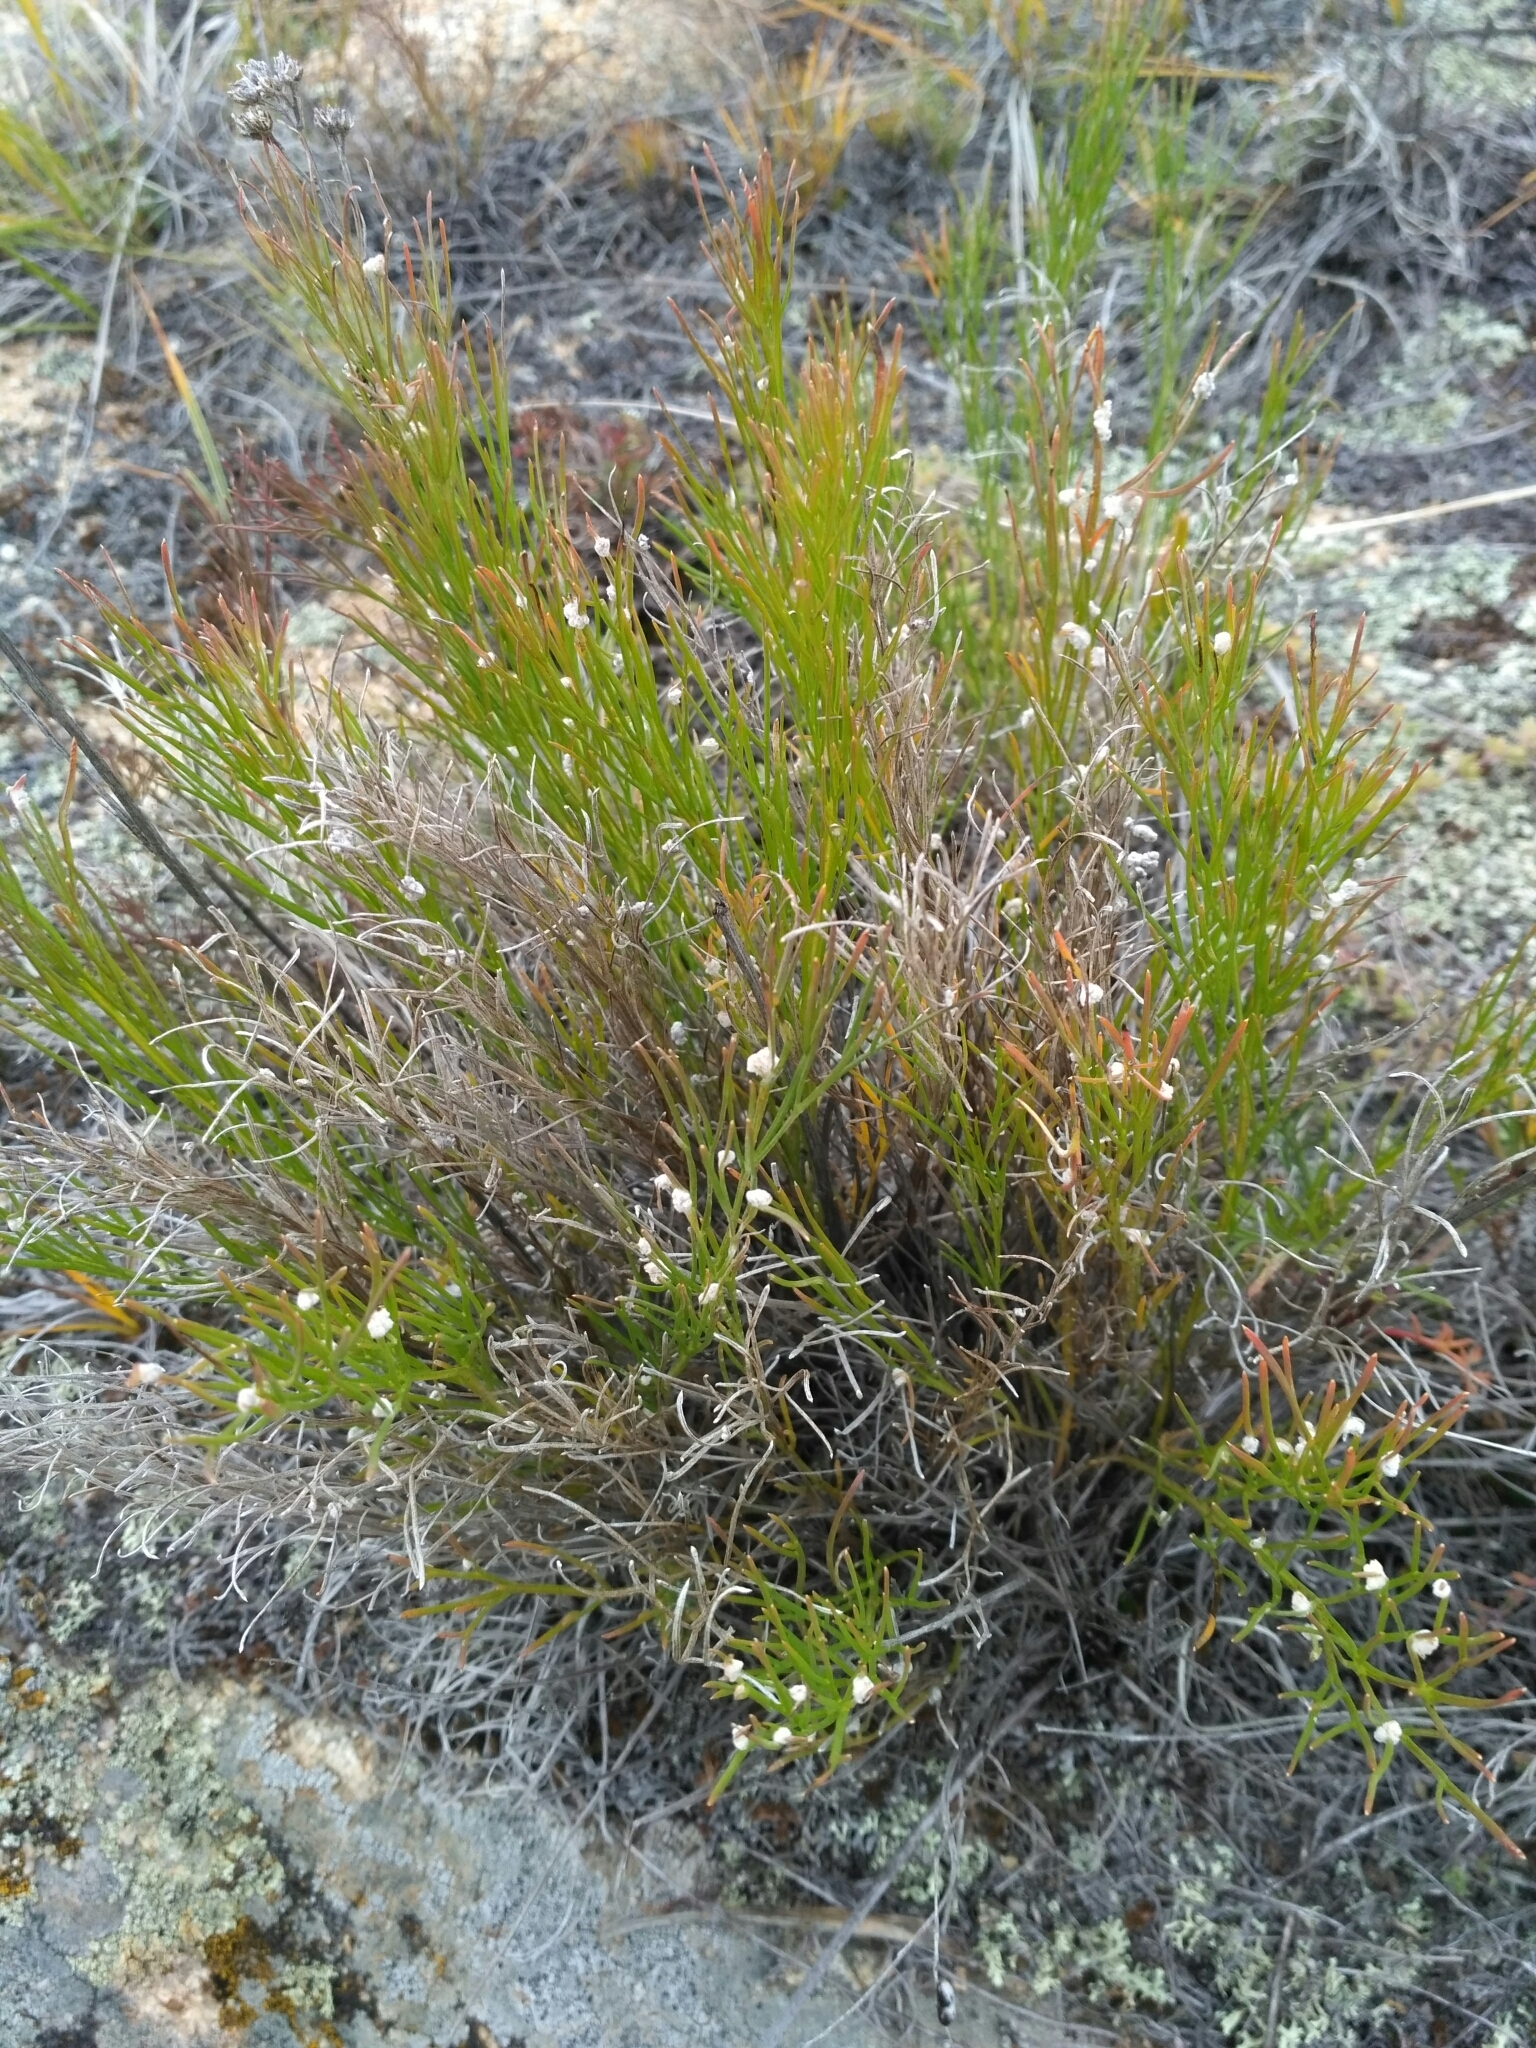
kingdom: Plantae
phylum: Tracheophyta
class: Magnoliopsida
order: Asterales
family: Asteraceae
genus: Filifolium
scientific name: Filifolium sibiricum
